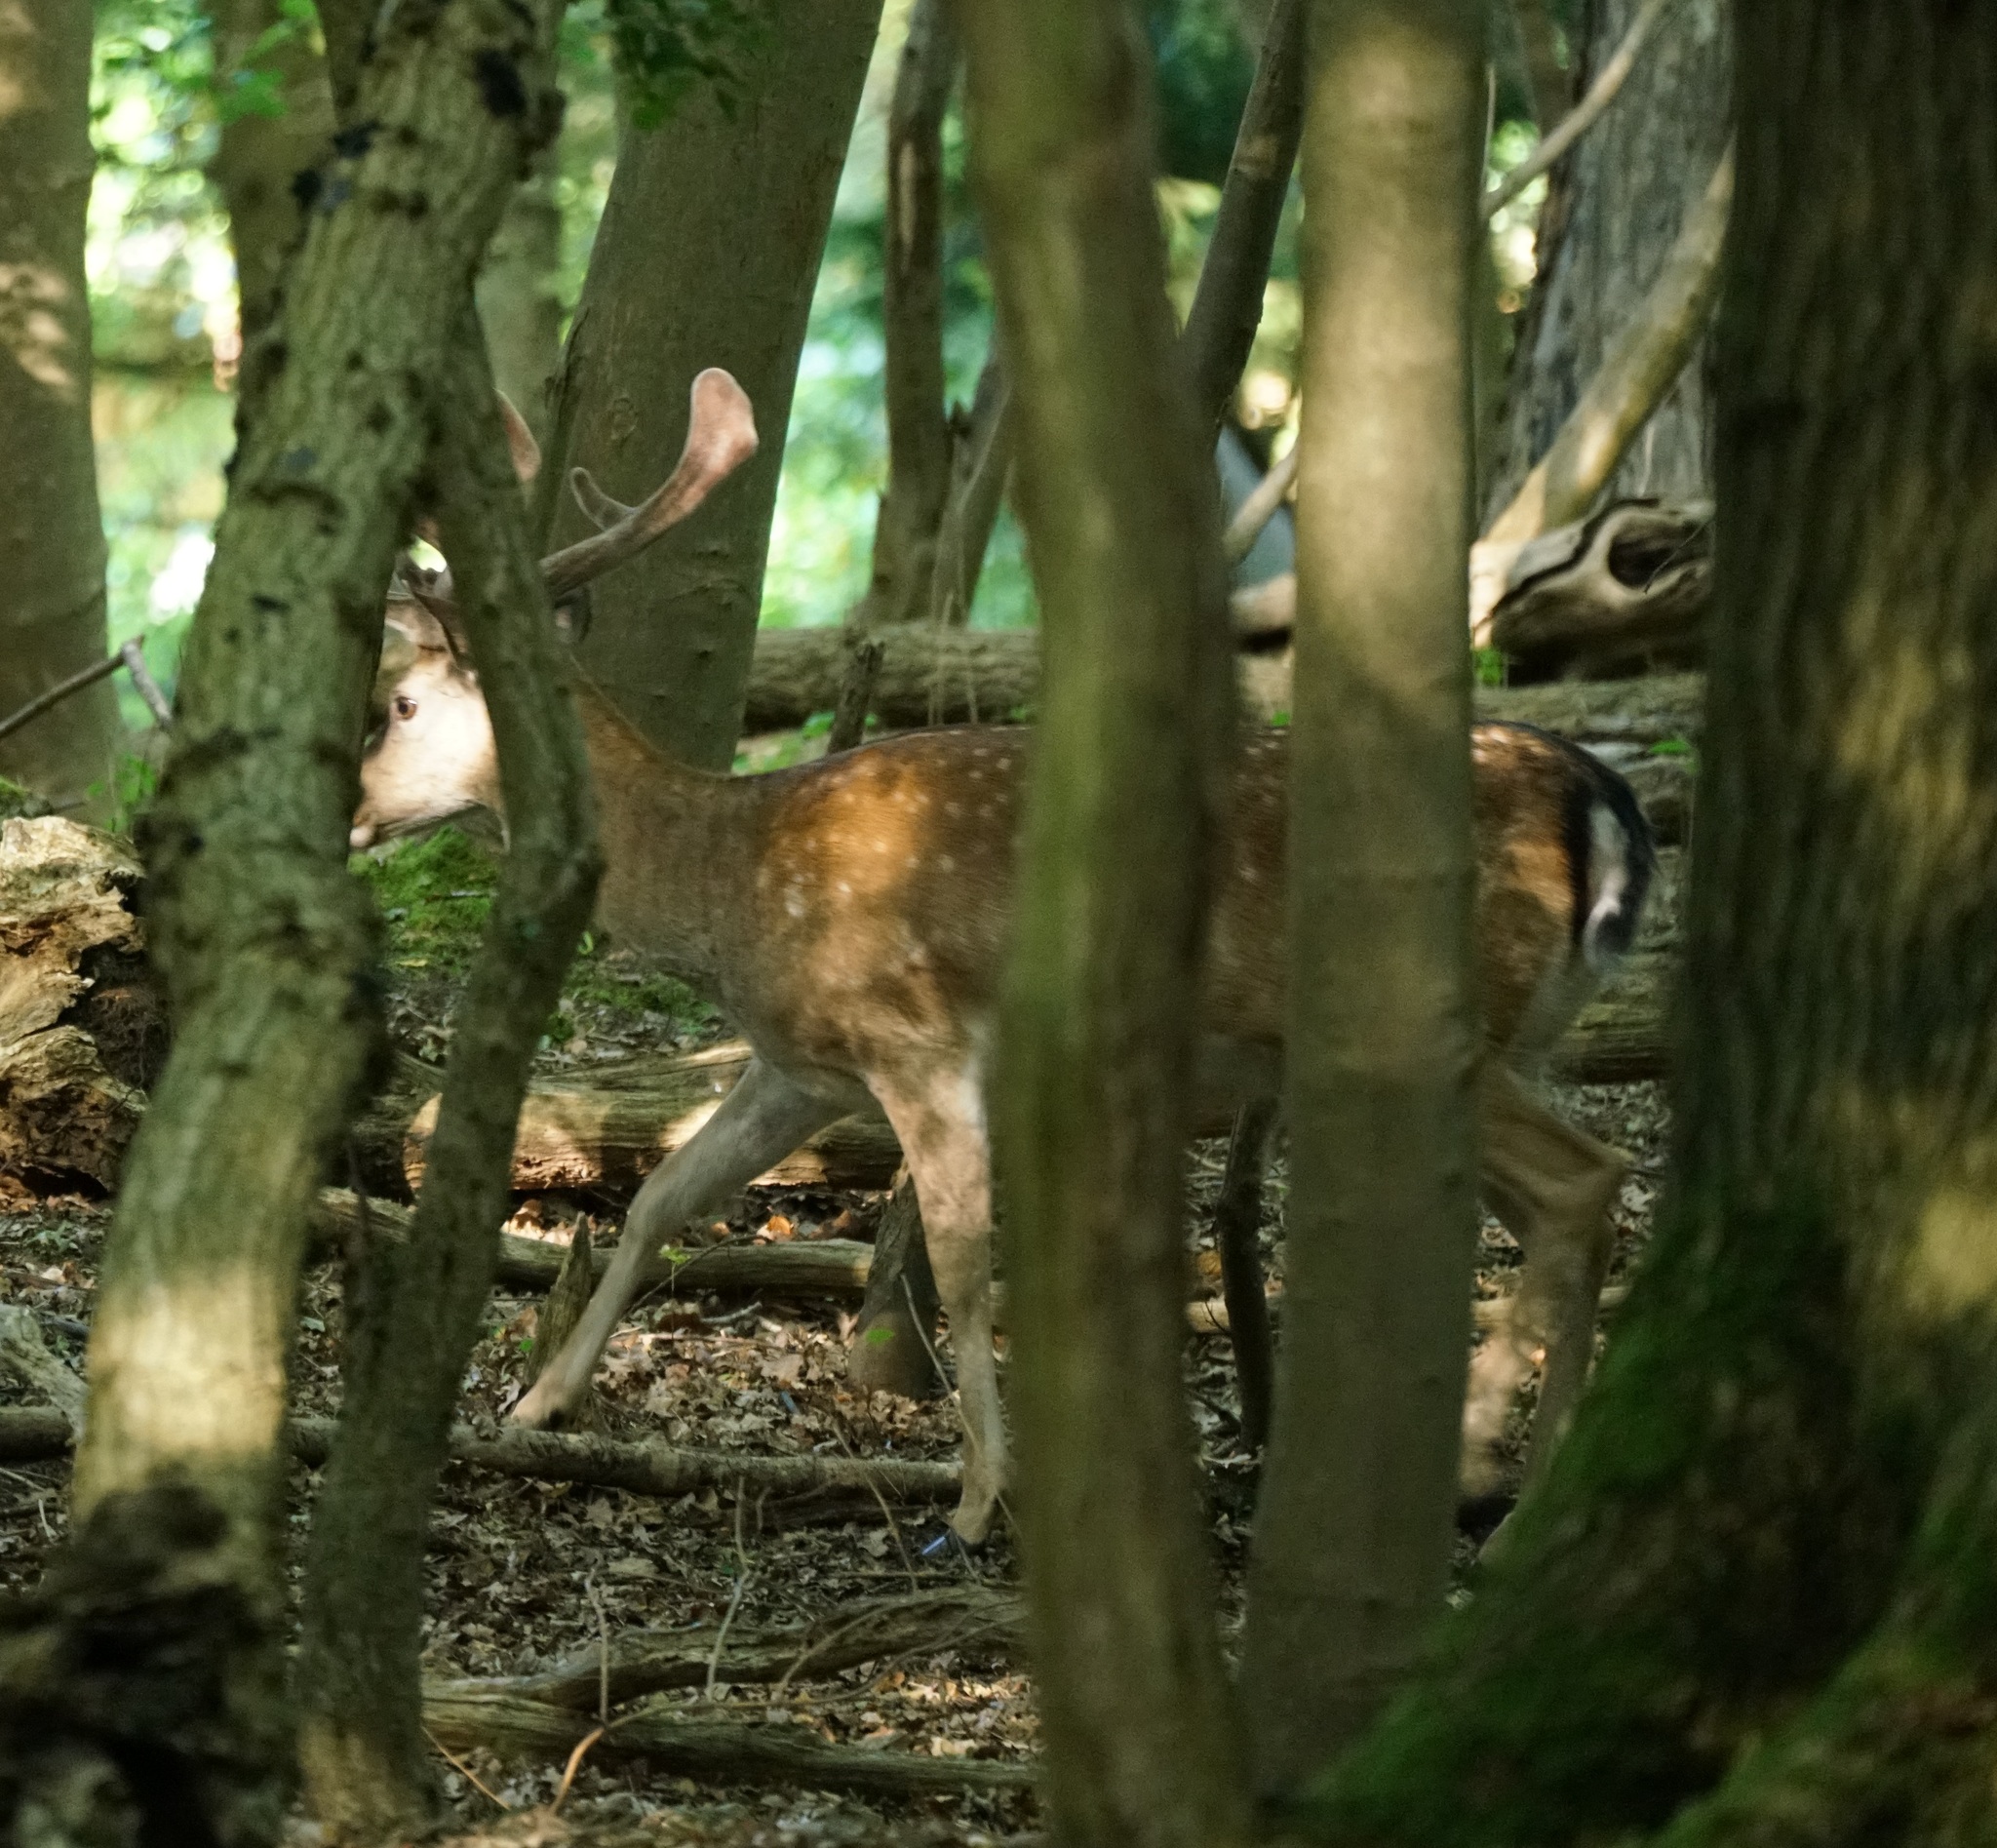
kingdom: Animalia
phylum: Chordata
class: Mammalia
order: Artiodactyla
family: Cervidae
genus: Dama
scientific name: Dama dama
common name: Fallow deer
